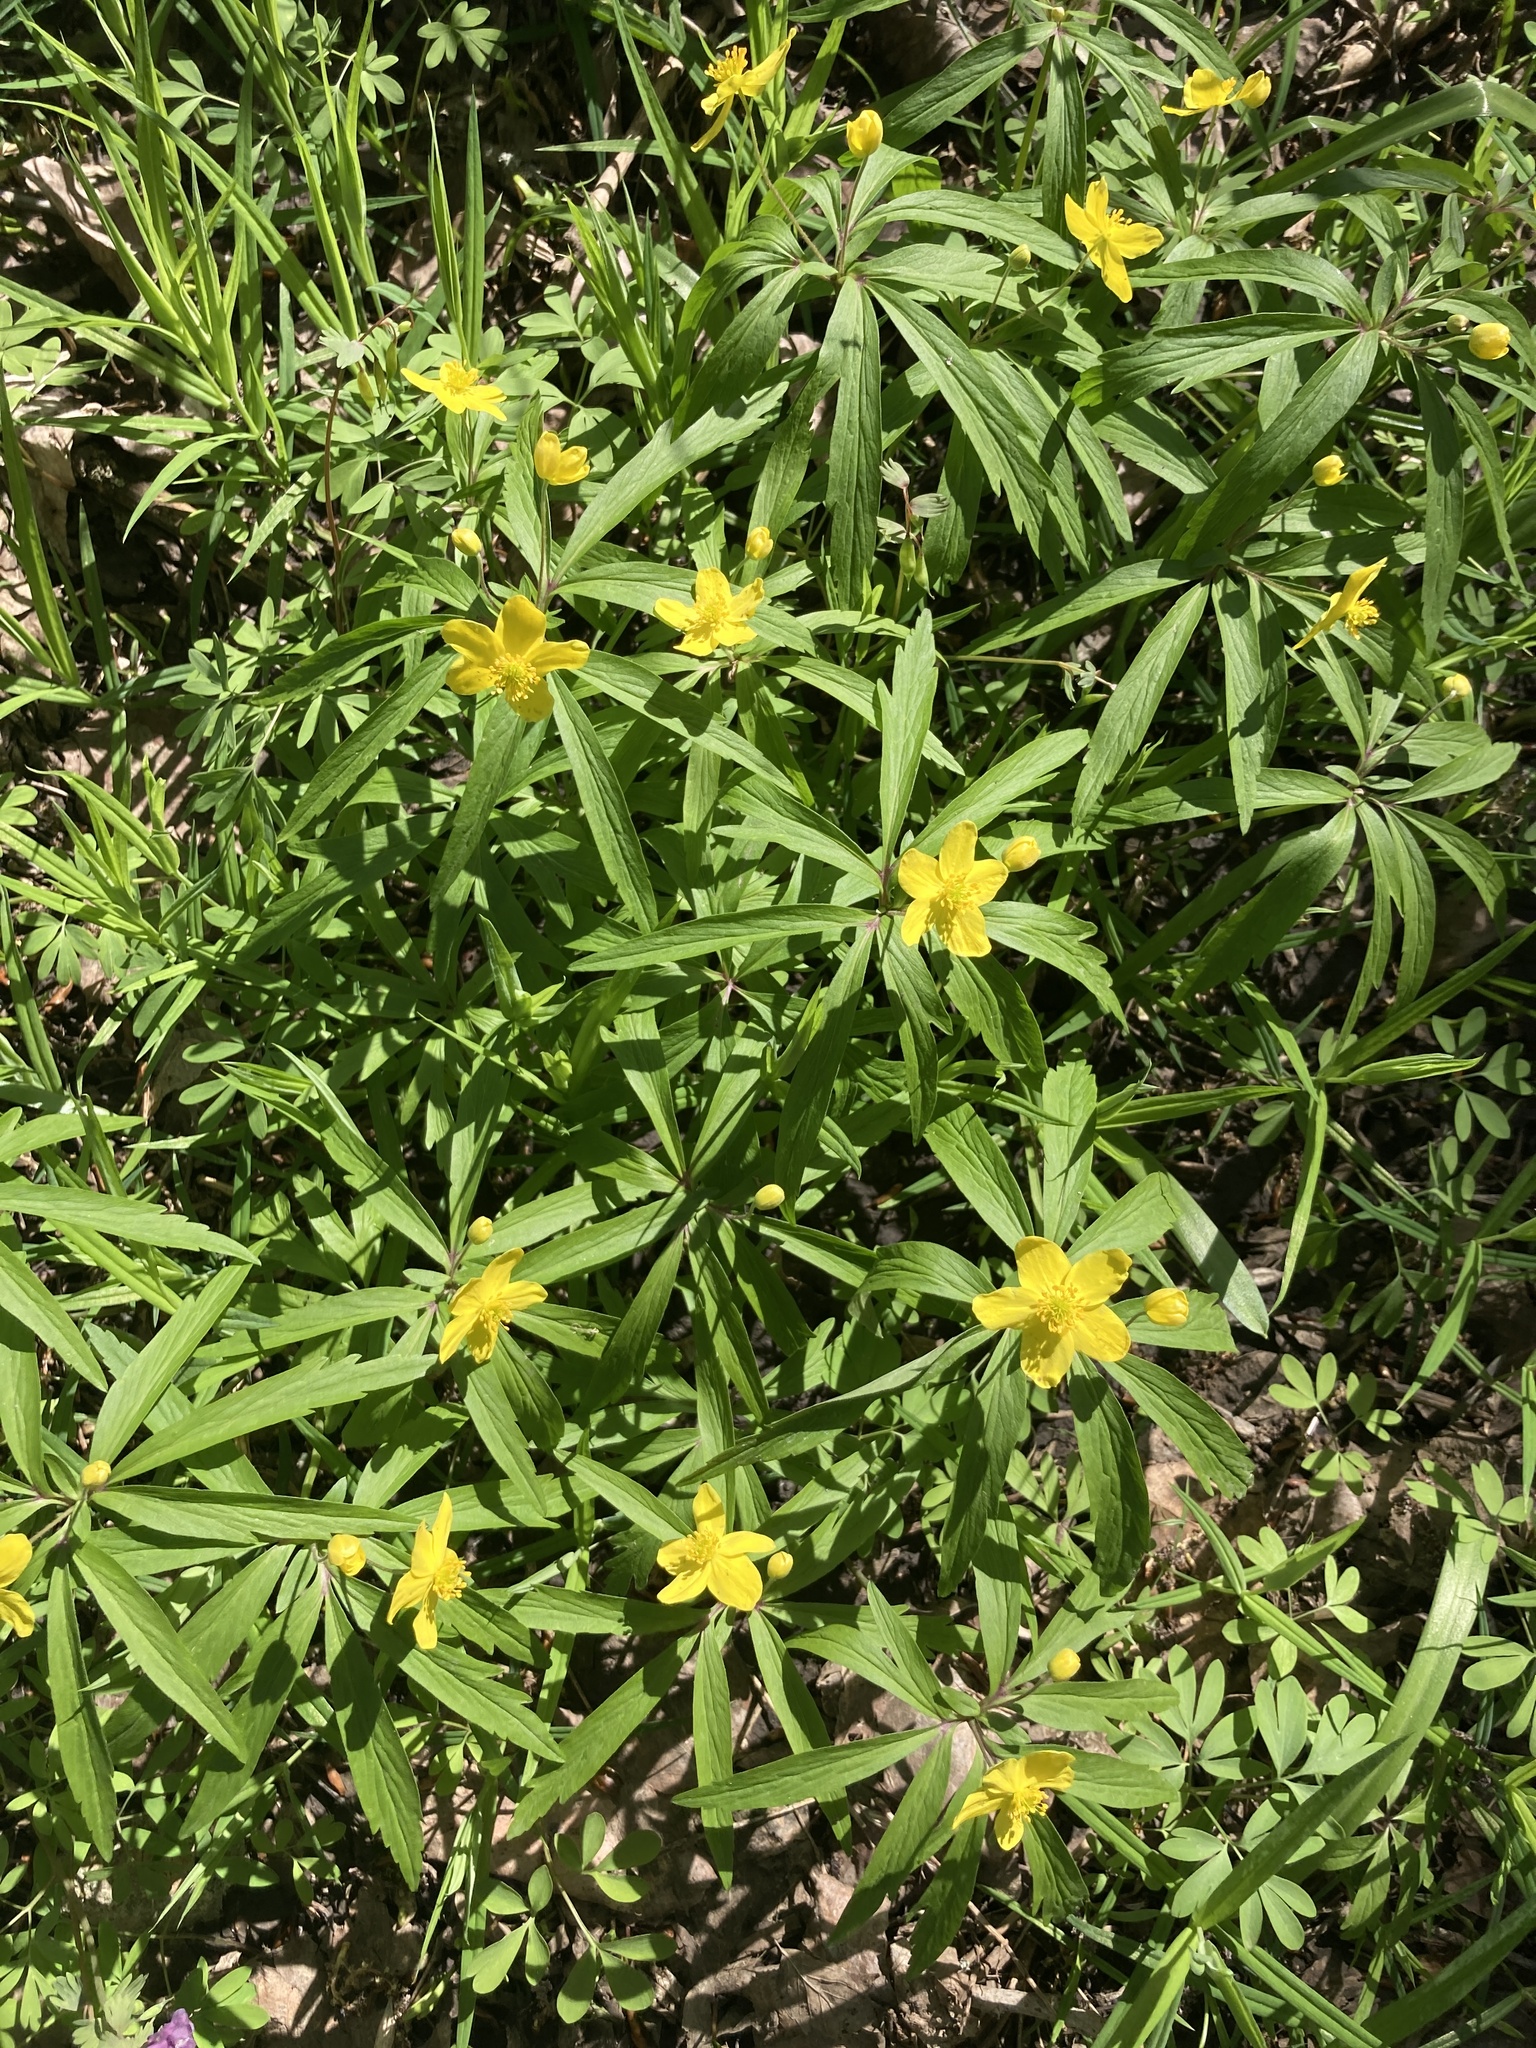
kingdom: Plantae
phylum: Tracheophyta
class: Magnoliopsida
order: Ranunculales
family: Ranunculaceae
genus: Anemone
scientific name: Anemone ranunculoides
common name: Yellow anemone
